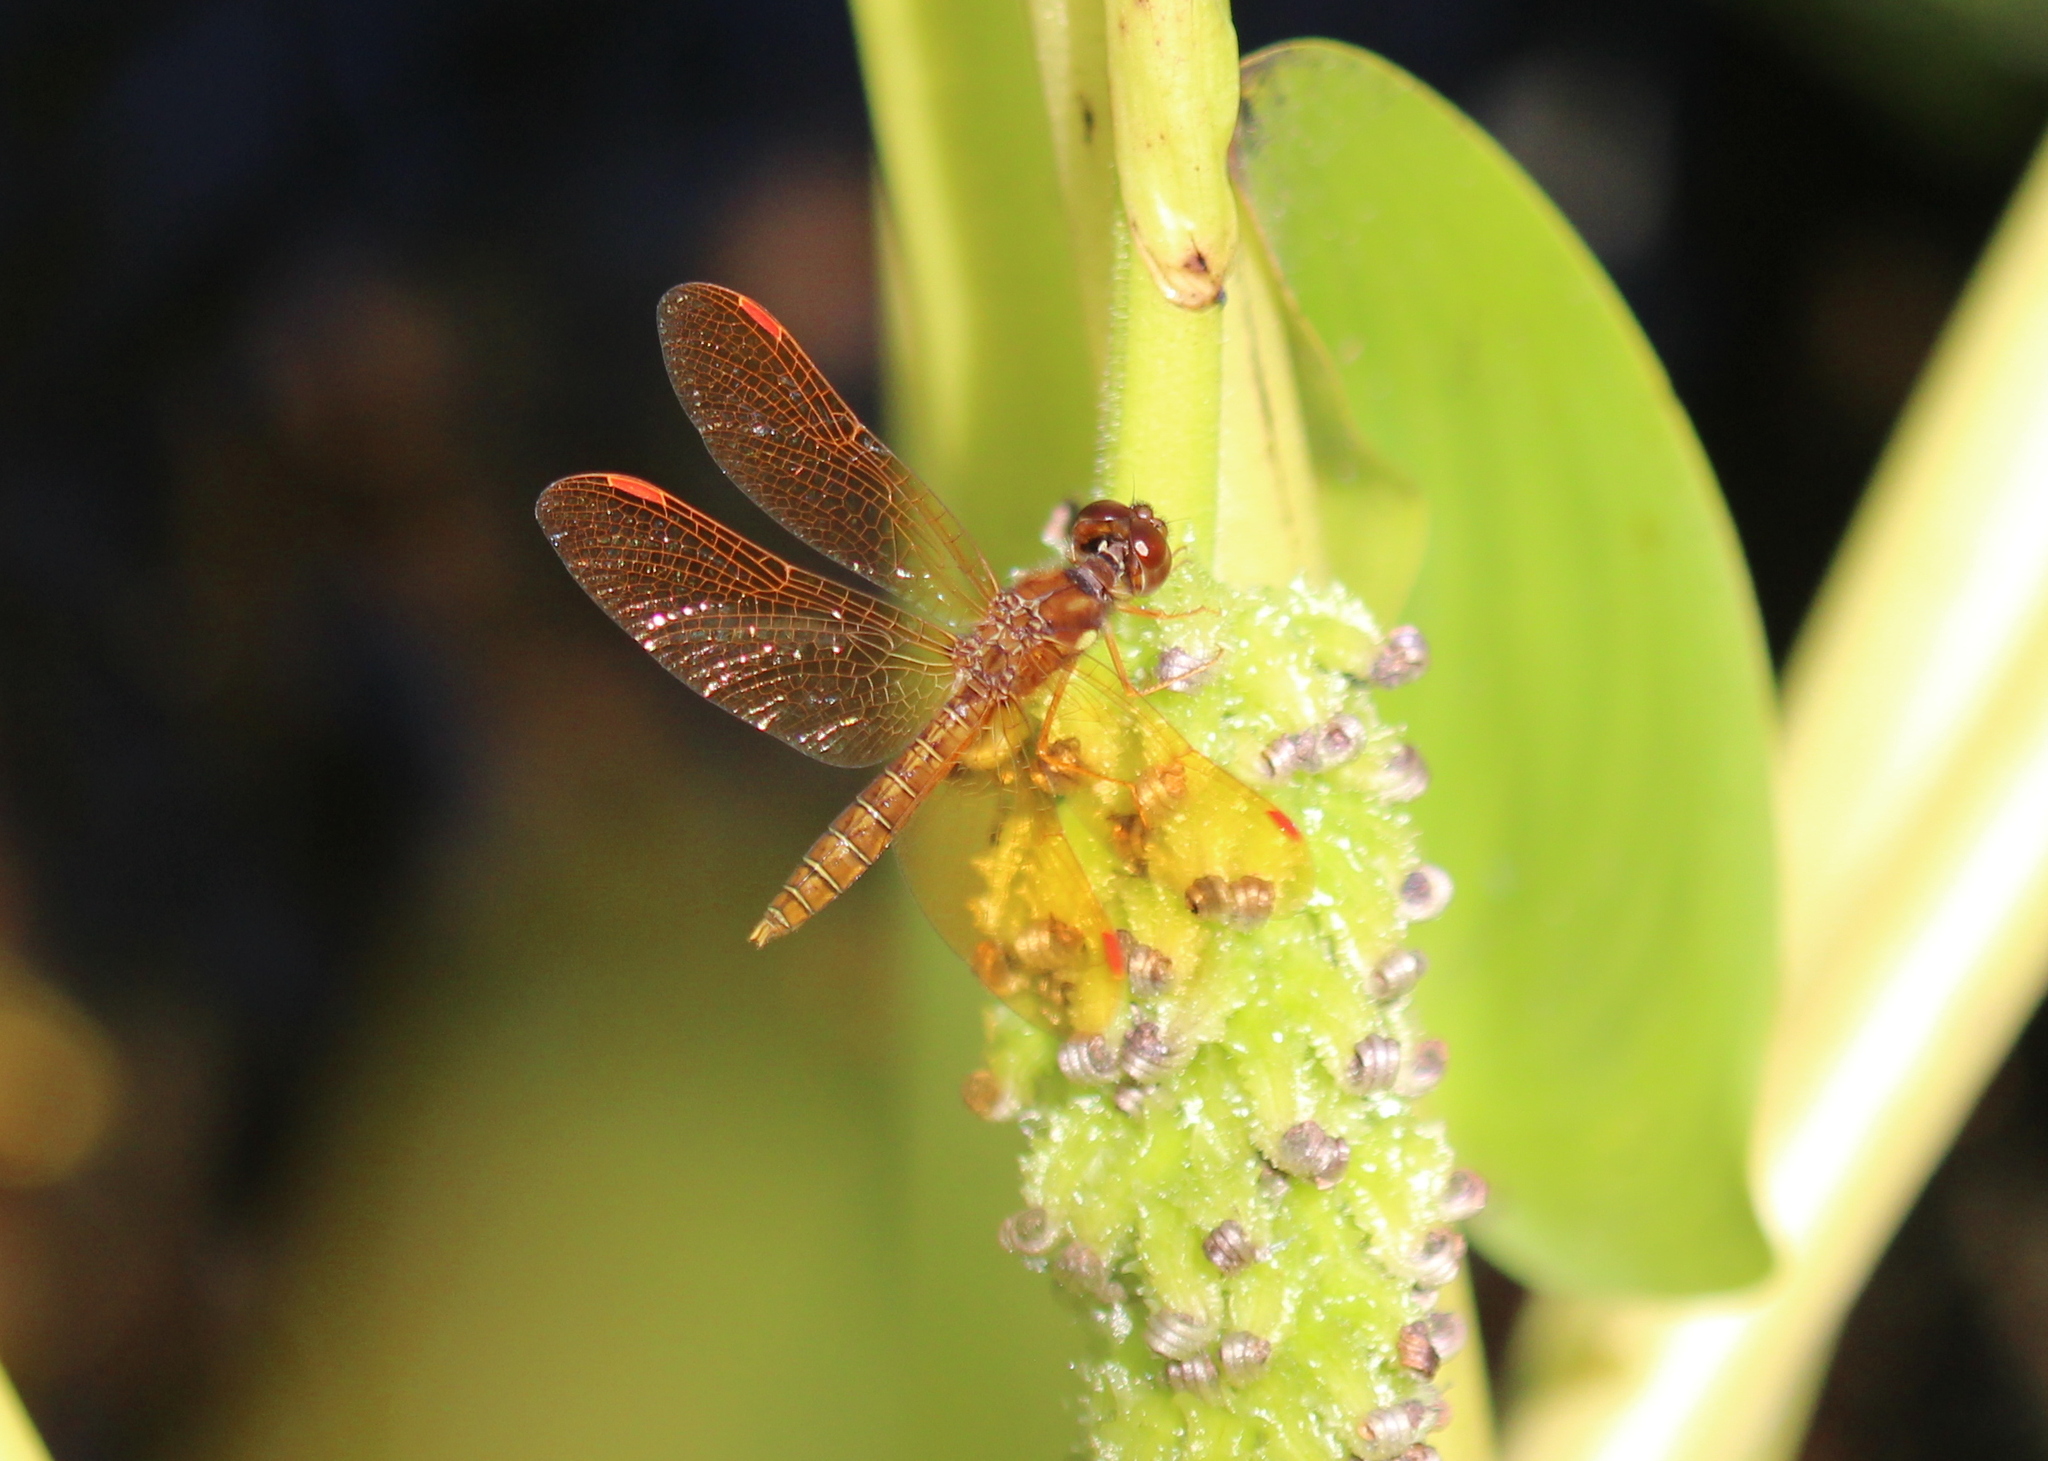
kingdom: Animalia
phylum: Arthropoda
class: Insecta
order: Odonata
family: Libellulidae
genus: Perithemis
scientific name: Perithemis tenera
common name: Eastern amberwing
